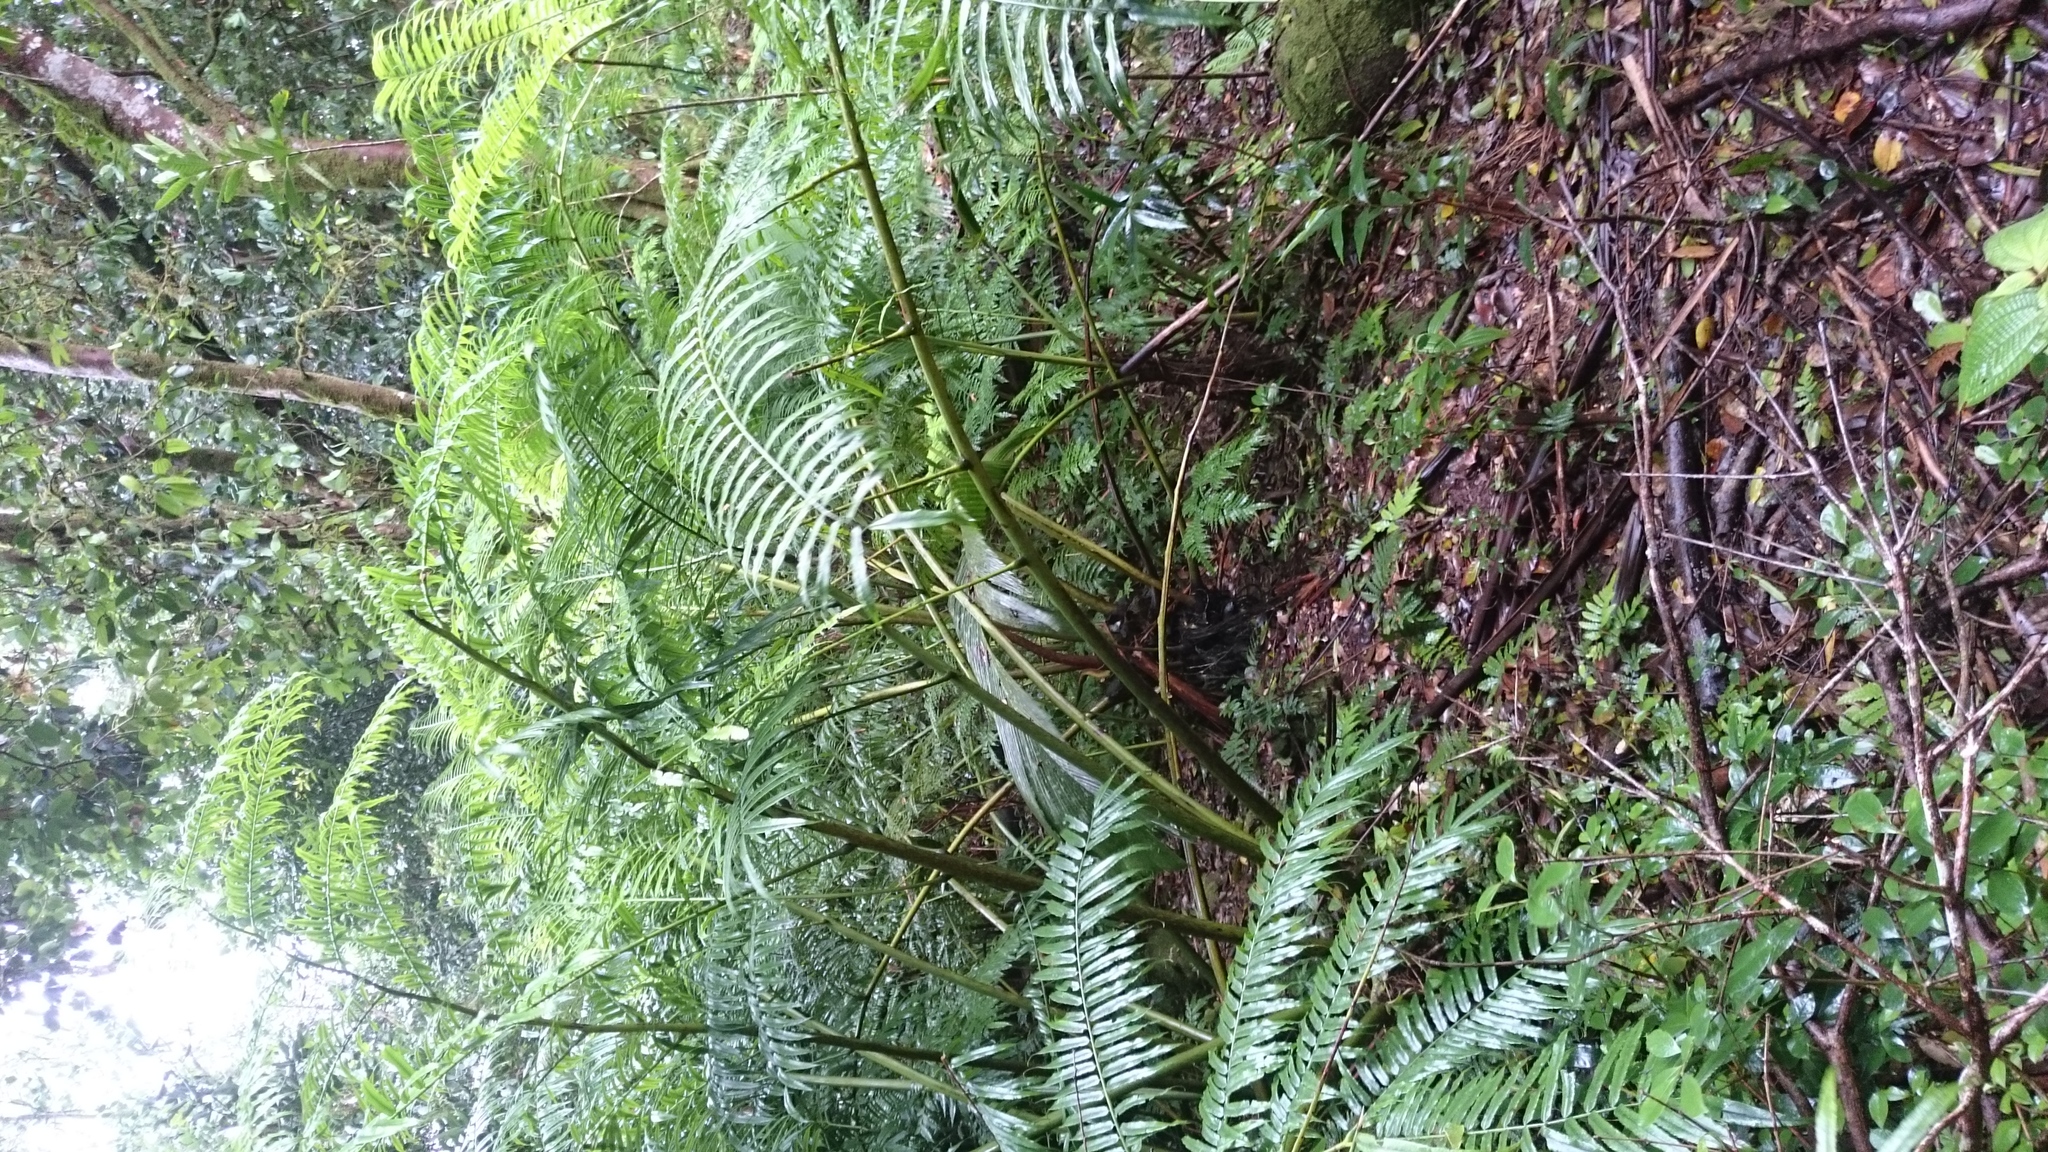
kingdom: Plantae
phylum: Tracheophyta
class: Polypodiopsida
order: Marattiales
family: Marattiaceae
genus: Angiopteris
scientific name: Angiopteris evecta
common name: Mule's-foot fern
